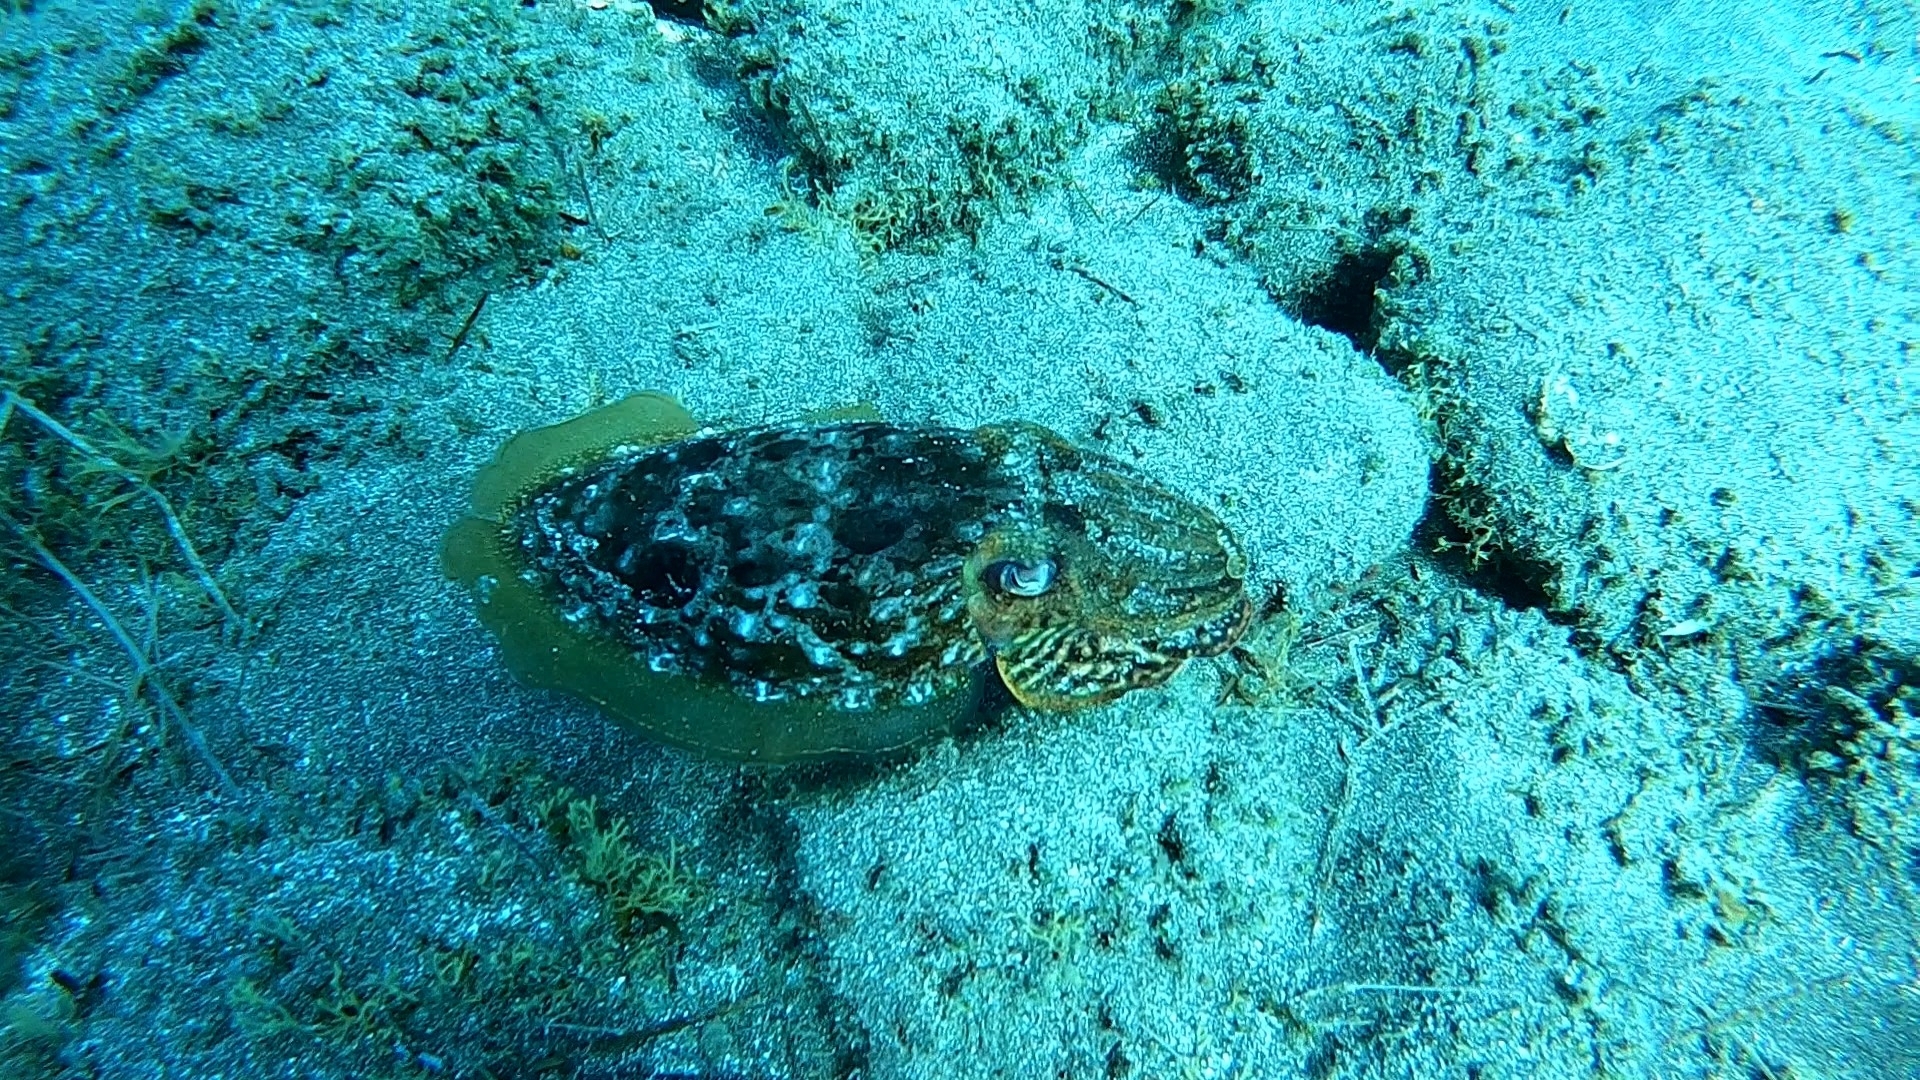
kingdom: Animalia
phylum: Mollusca
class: Cephalopoda
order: Sepiida
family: Sepiidae
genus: Sepia
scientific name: Sepia officinalis
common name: Common cuttlefish
